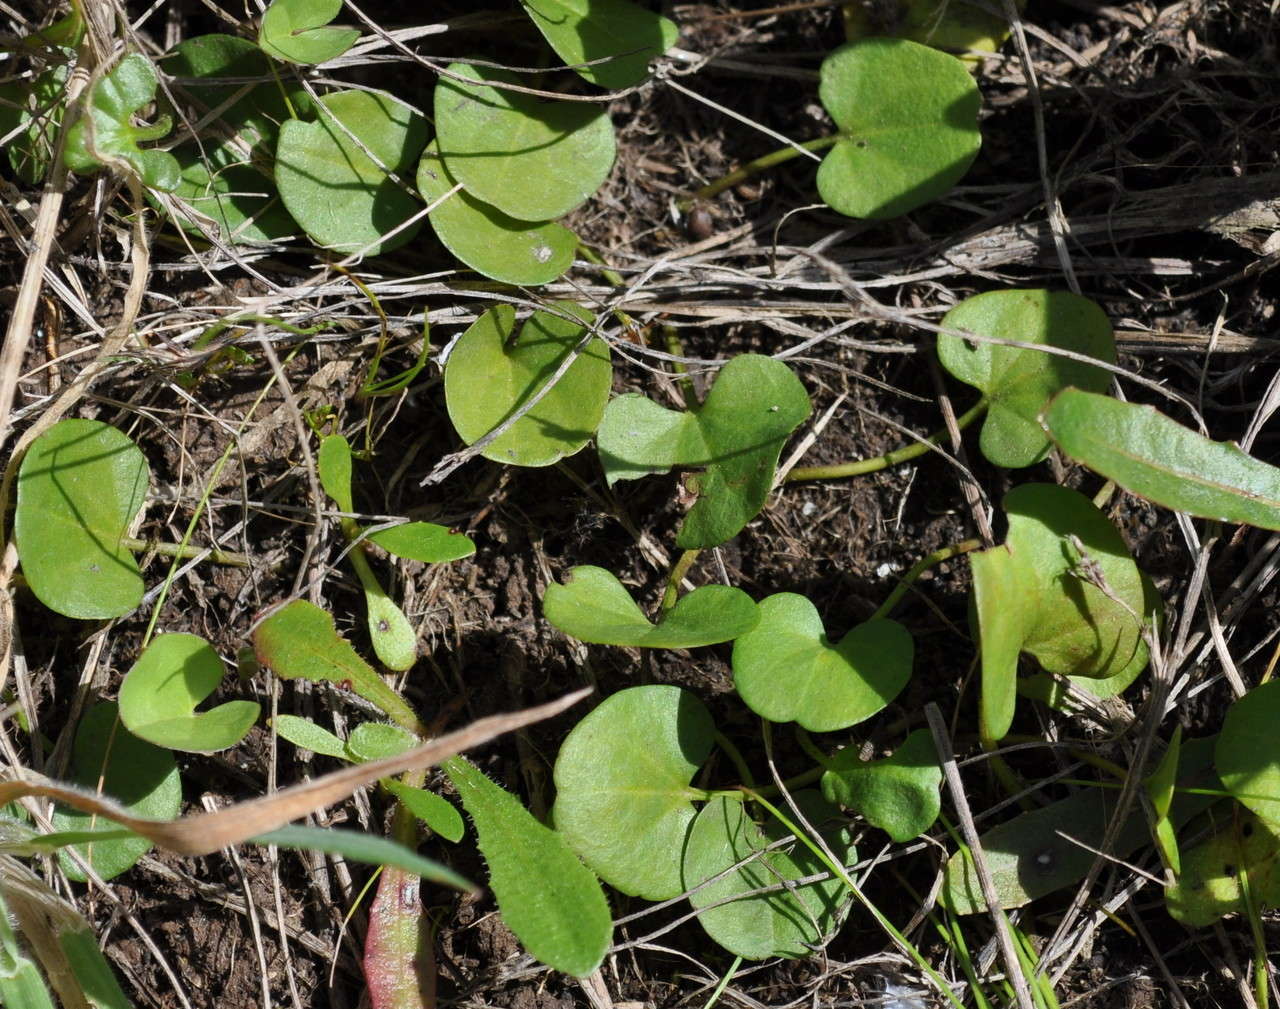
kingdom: Plantae
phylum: Tracheophyta
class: Magnoliopsida
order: Solanales
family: Convolvulaceae
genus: Dichondra
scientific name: Dichondra repens
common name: Kidneyweed
